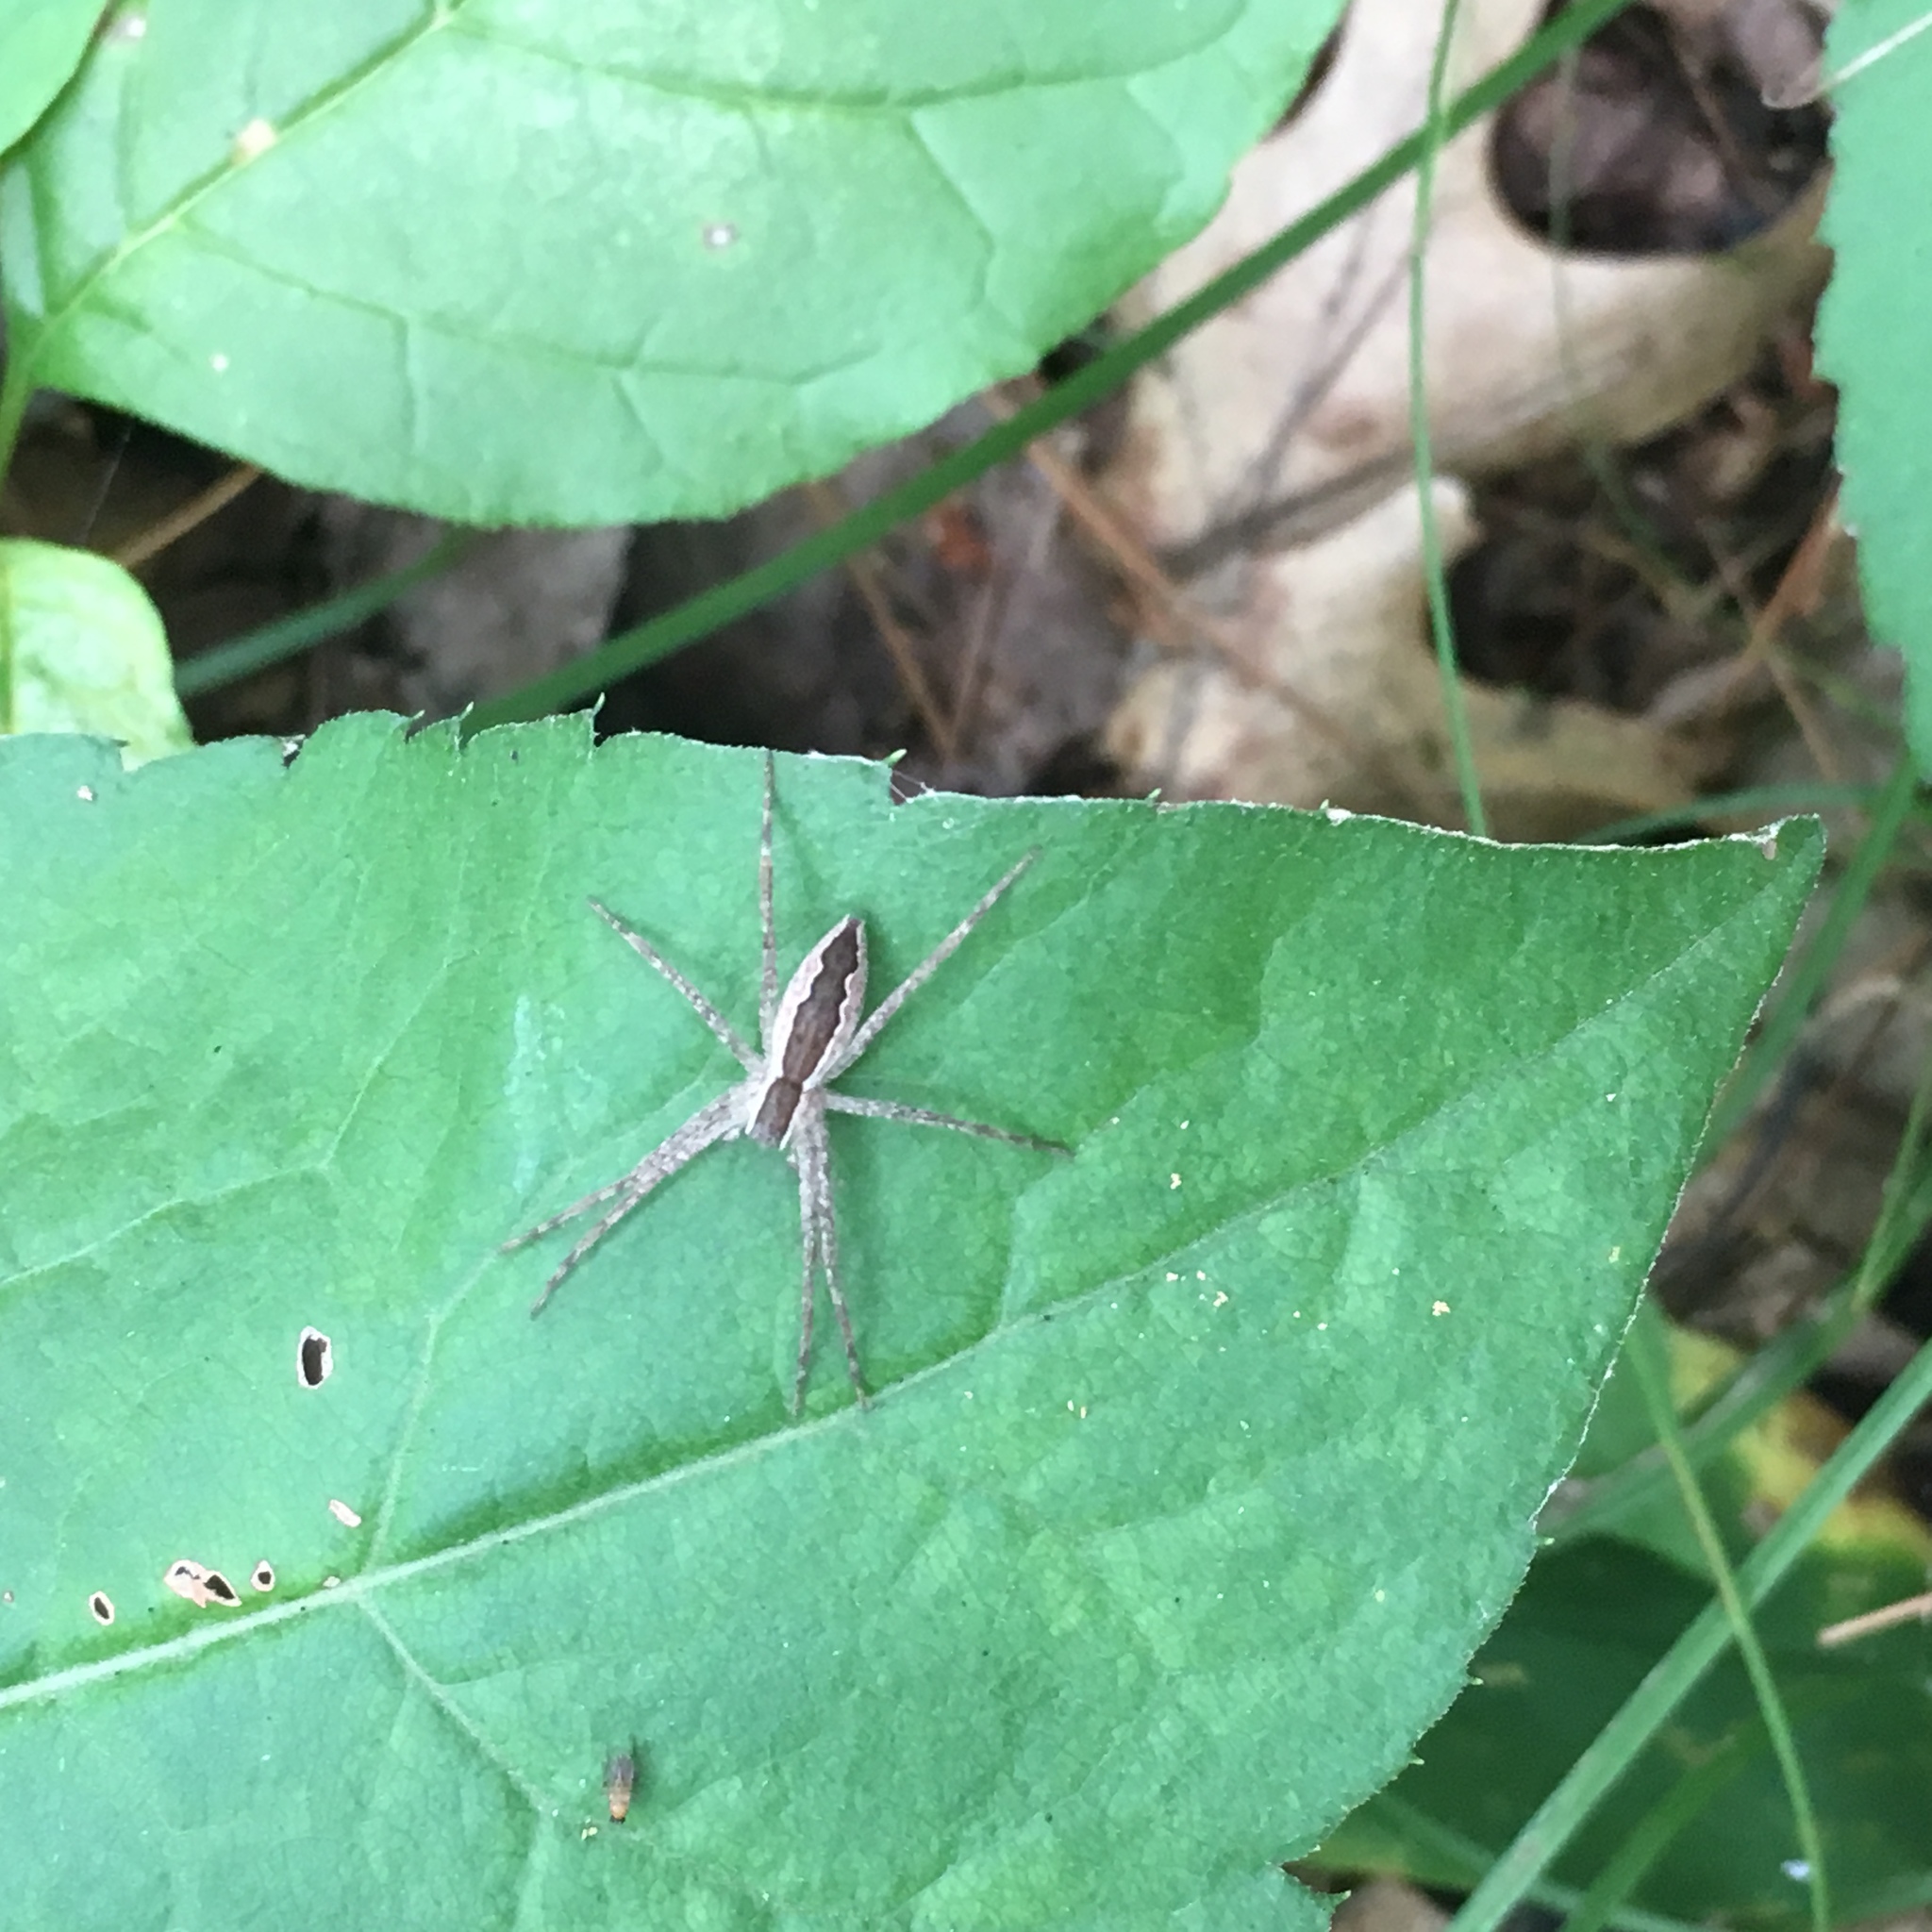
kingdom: Animalia
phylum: Arthropoda
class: Arachnida
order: Araneae
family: Pisauridae
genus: Pisaurina
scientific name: Pisaurina mira
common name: American nursery web spider
